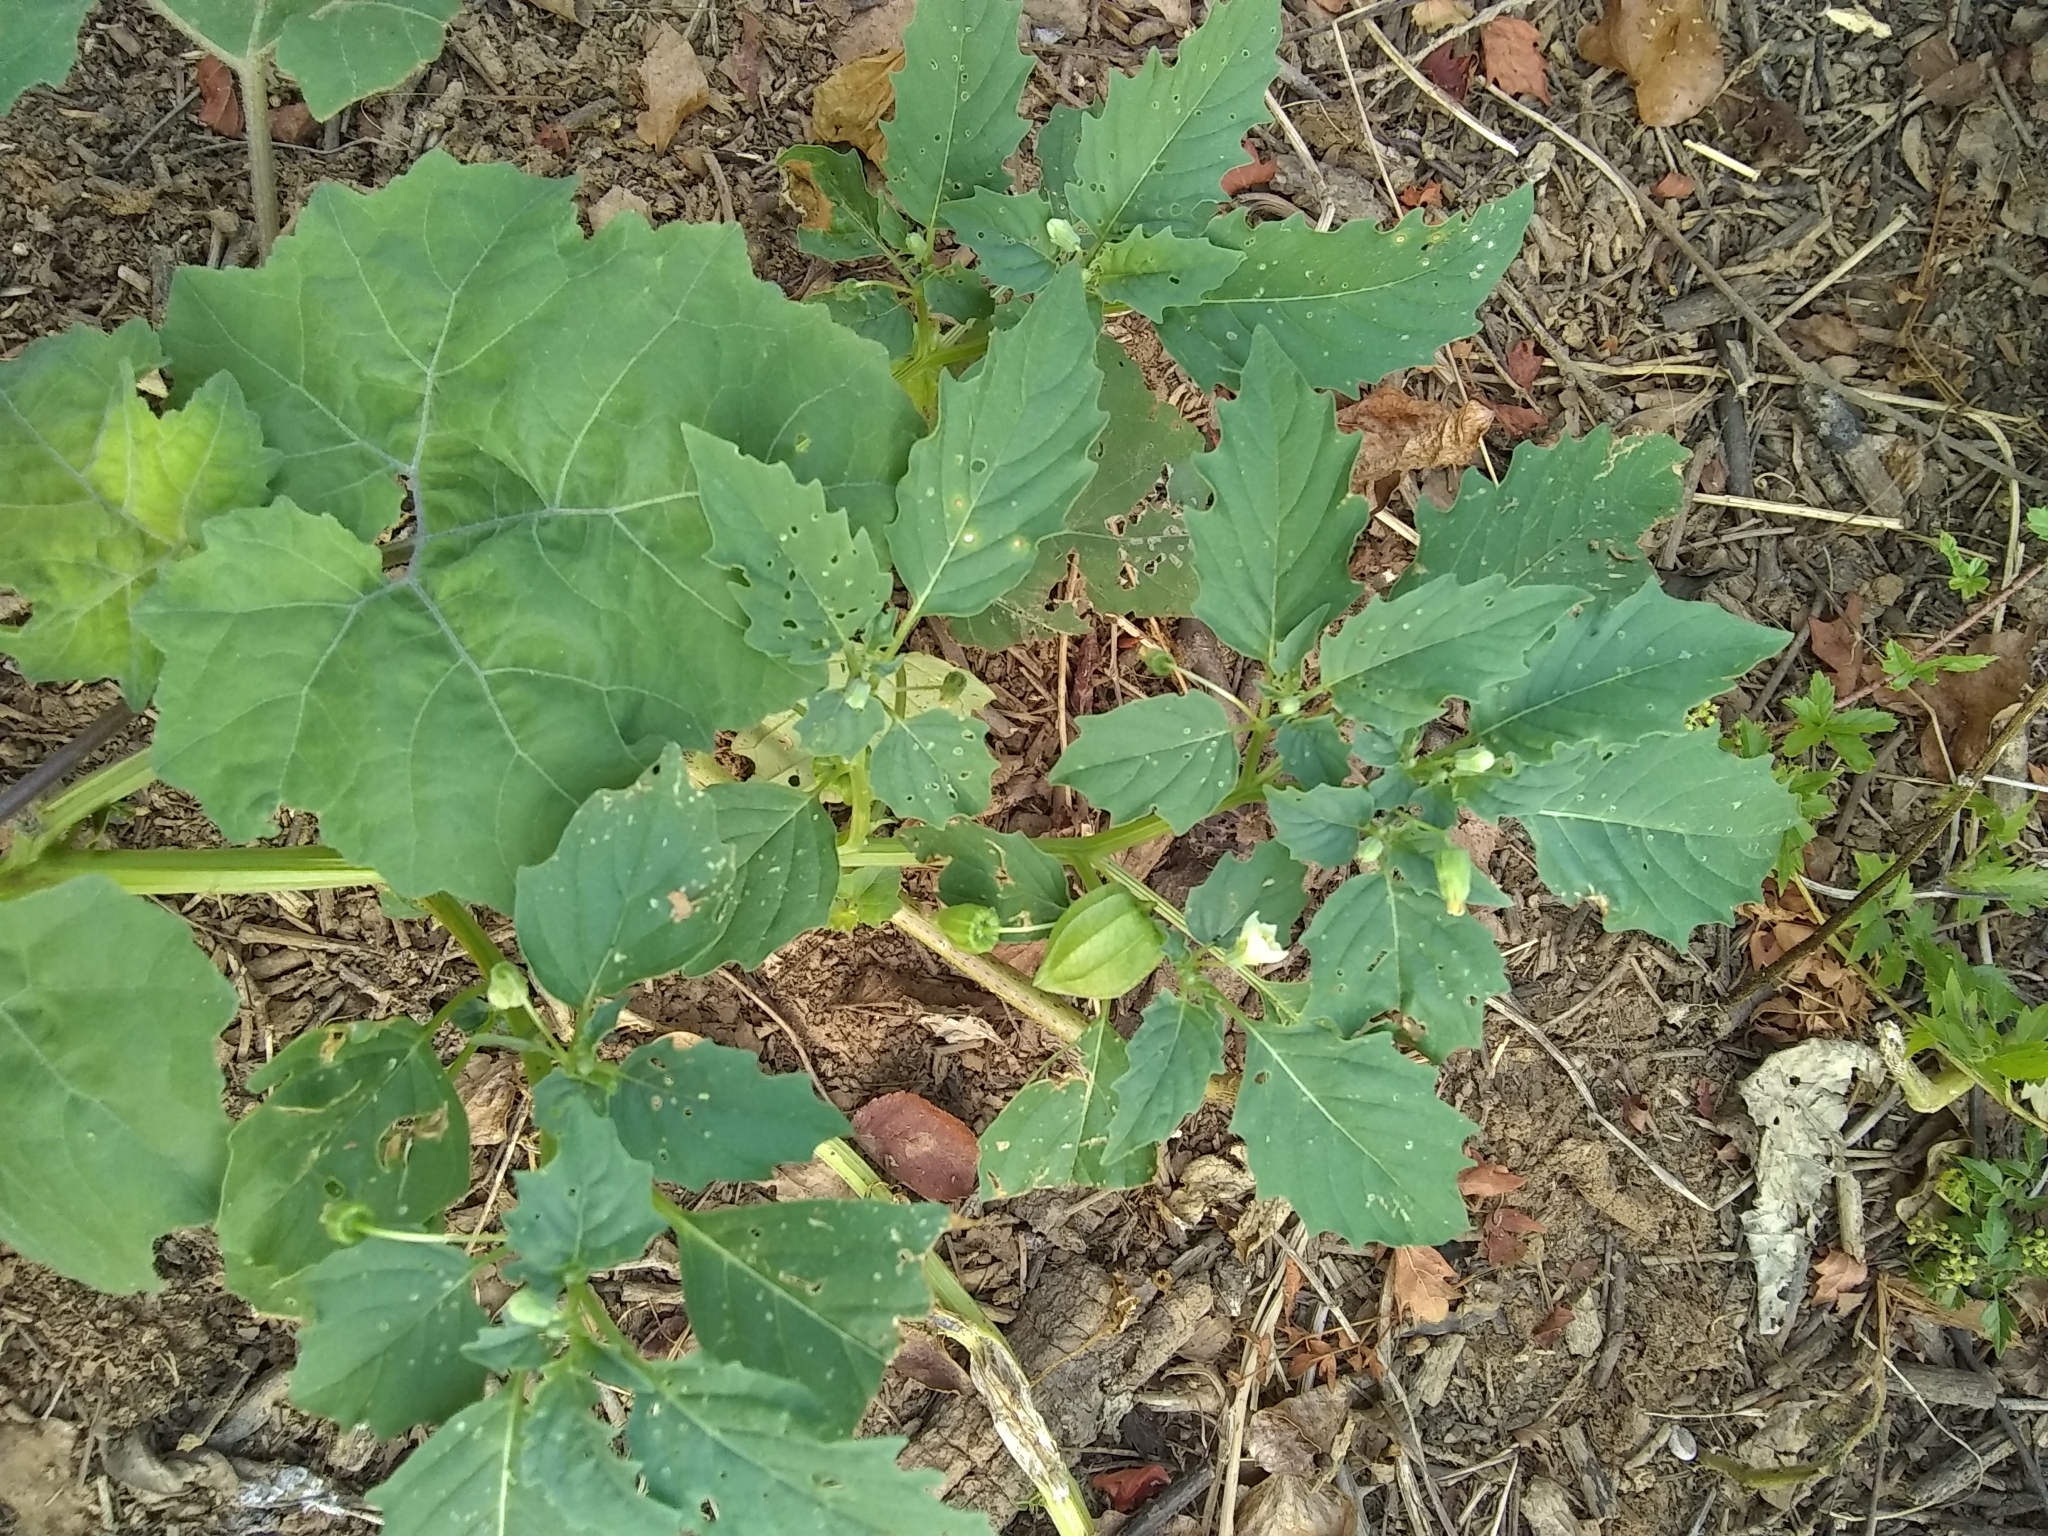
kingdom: Plantae
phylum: Tracheophyta
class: Magnoliopsida
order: Solanales
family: Solanaceae
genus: Physalis
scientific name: Physalis angulata
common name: Angular winter-cherry
